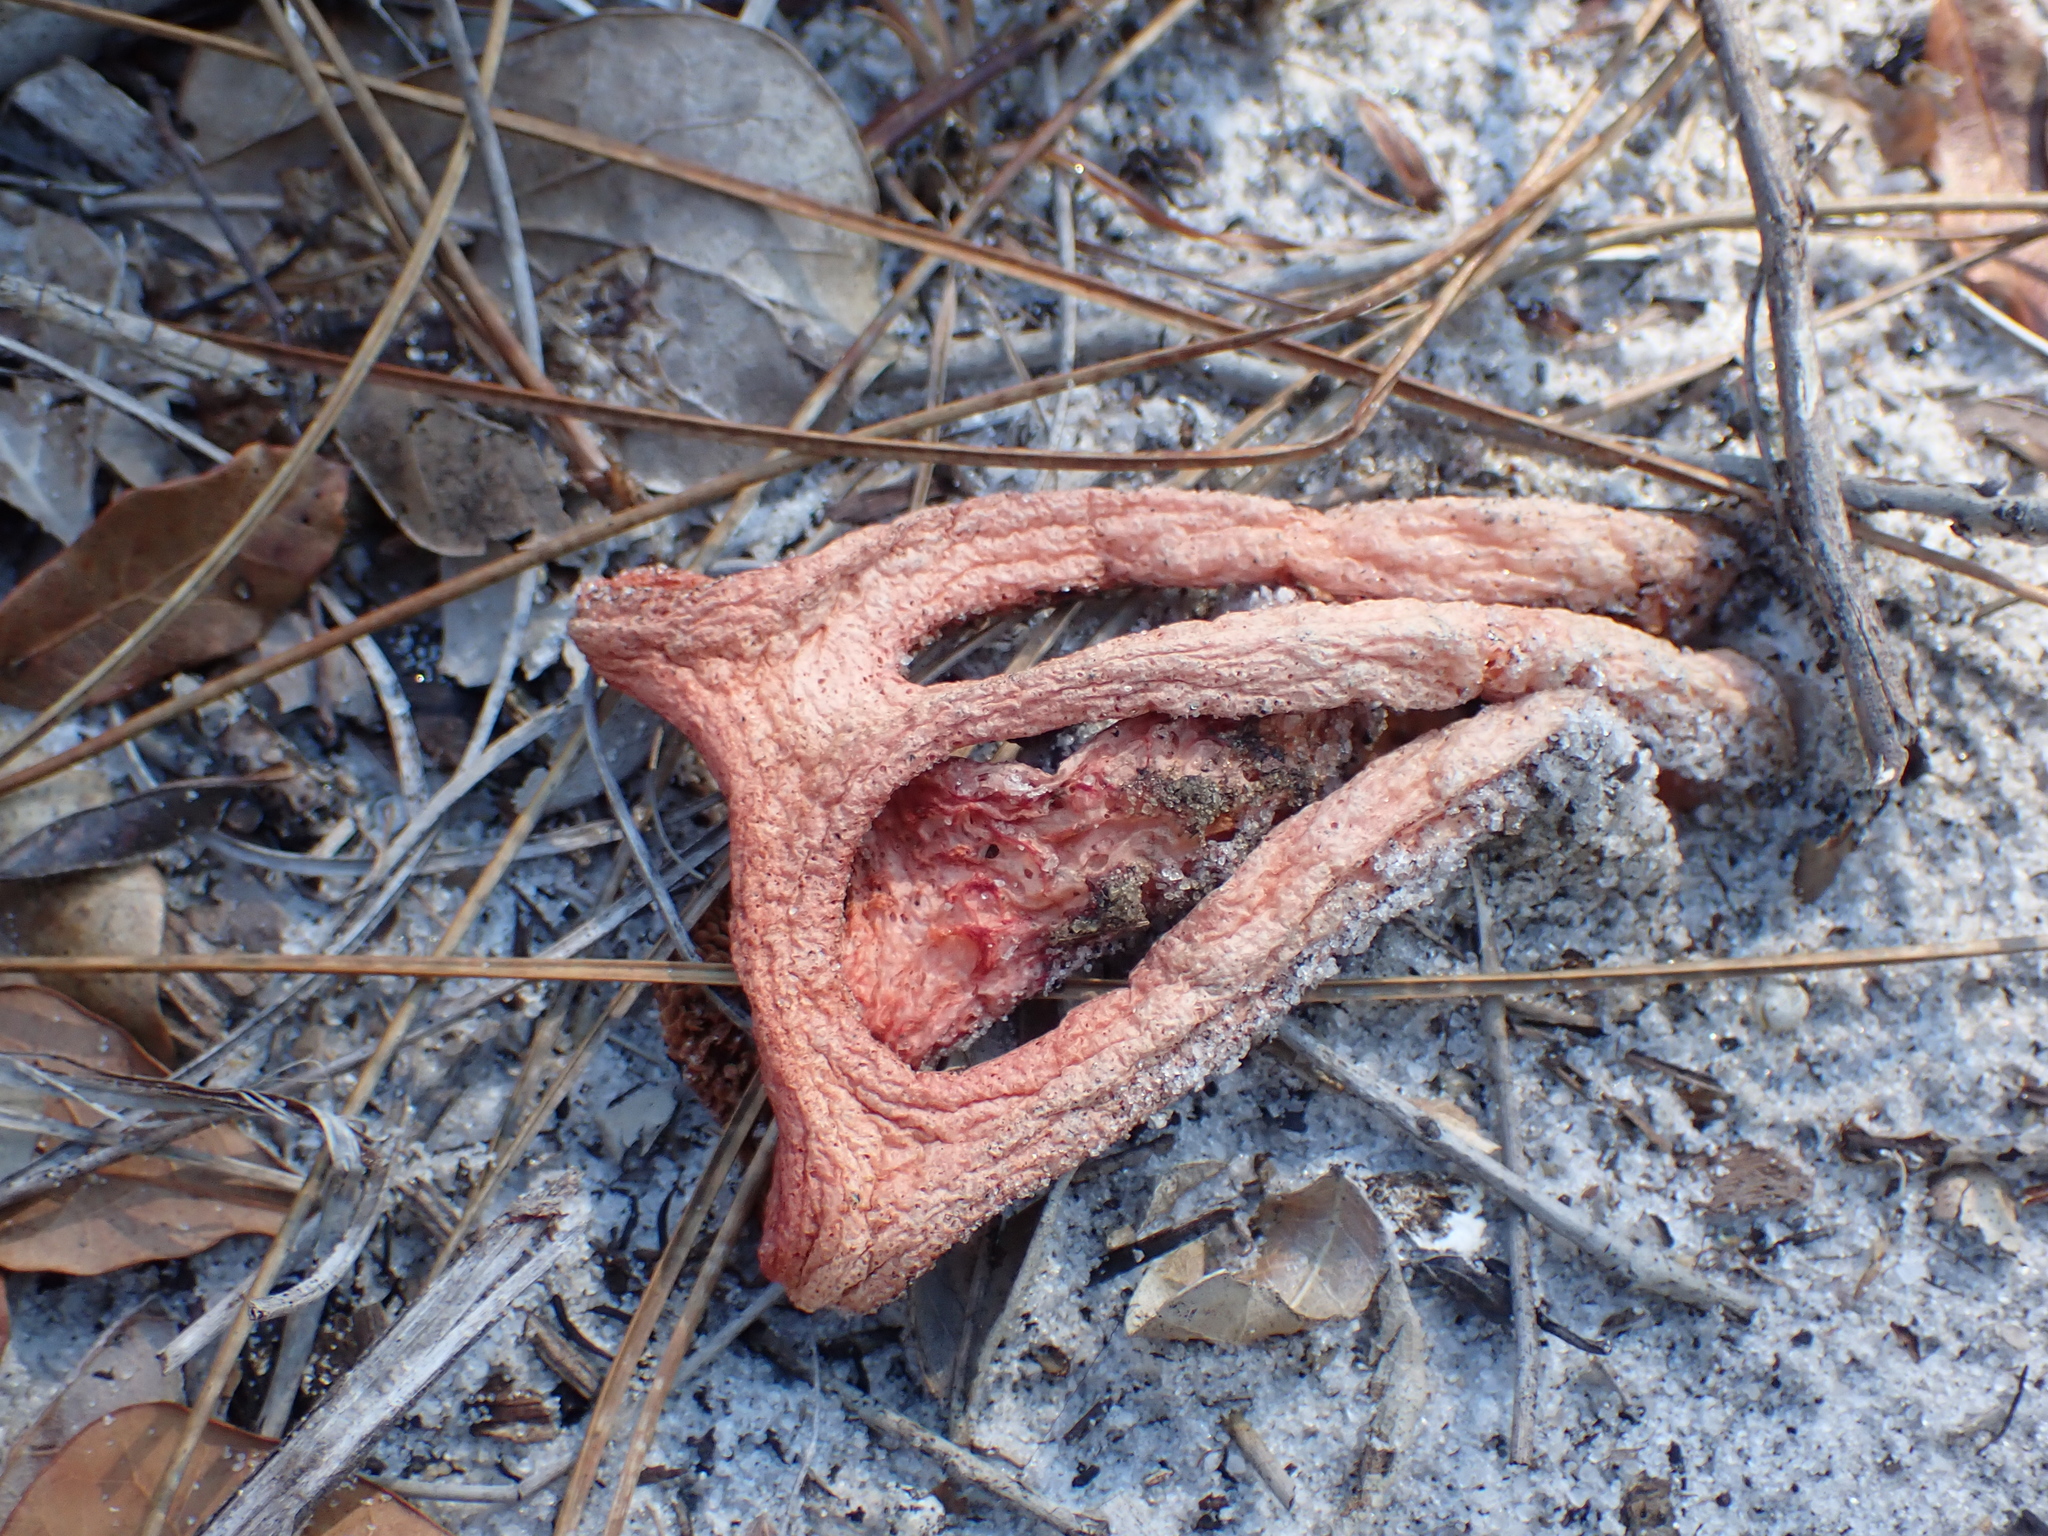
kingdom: Fungi
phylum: Basidiomycota
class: Agaricomycetes
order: Phallales
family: Phallaceae
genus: Clathrus
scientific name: Clathrus columnatus
